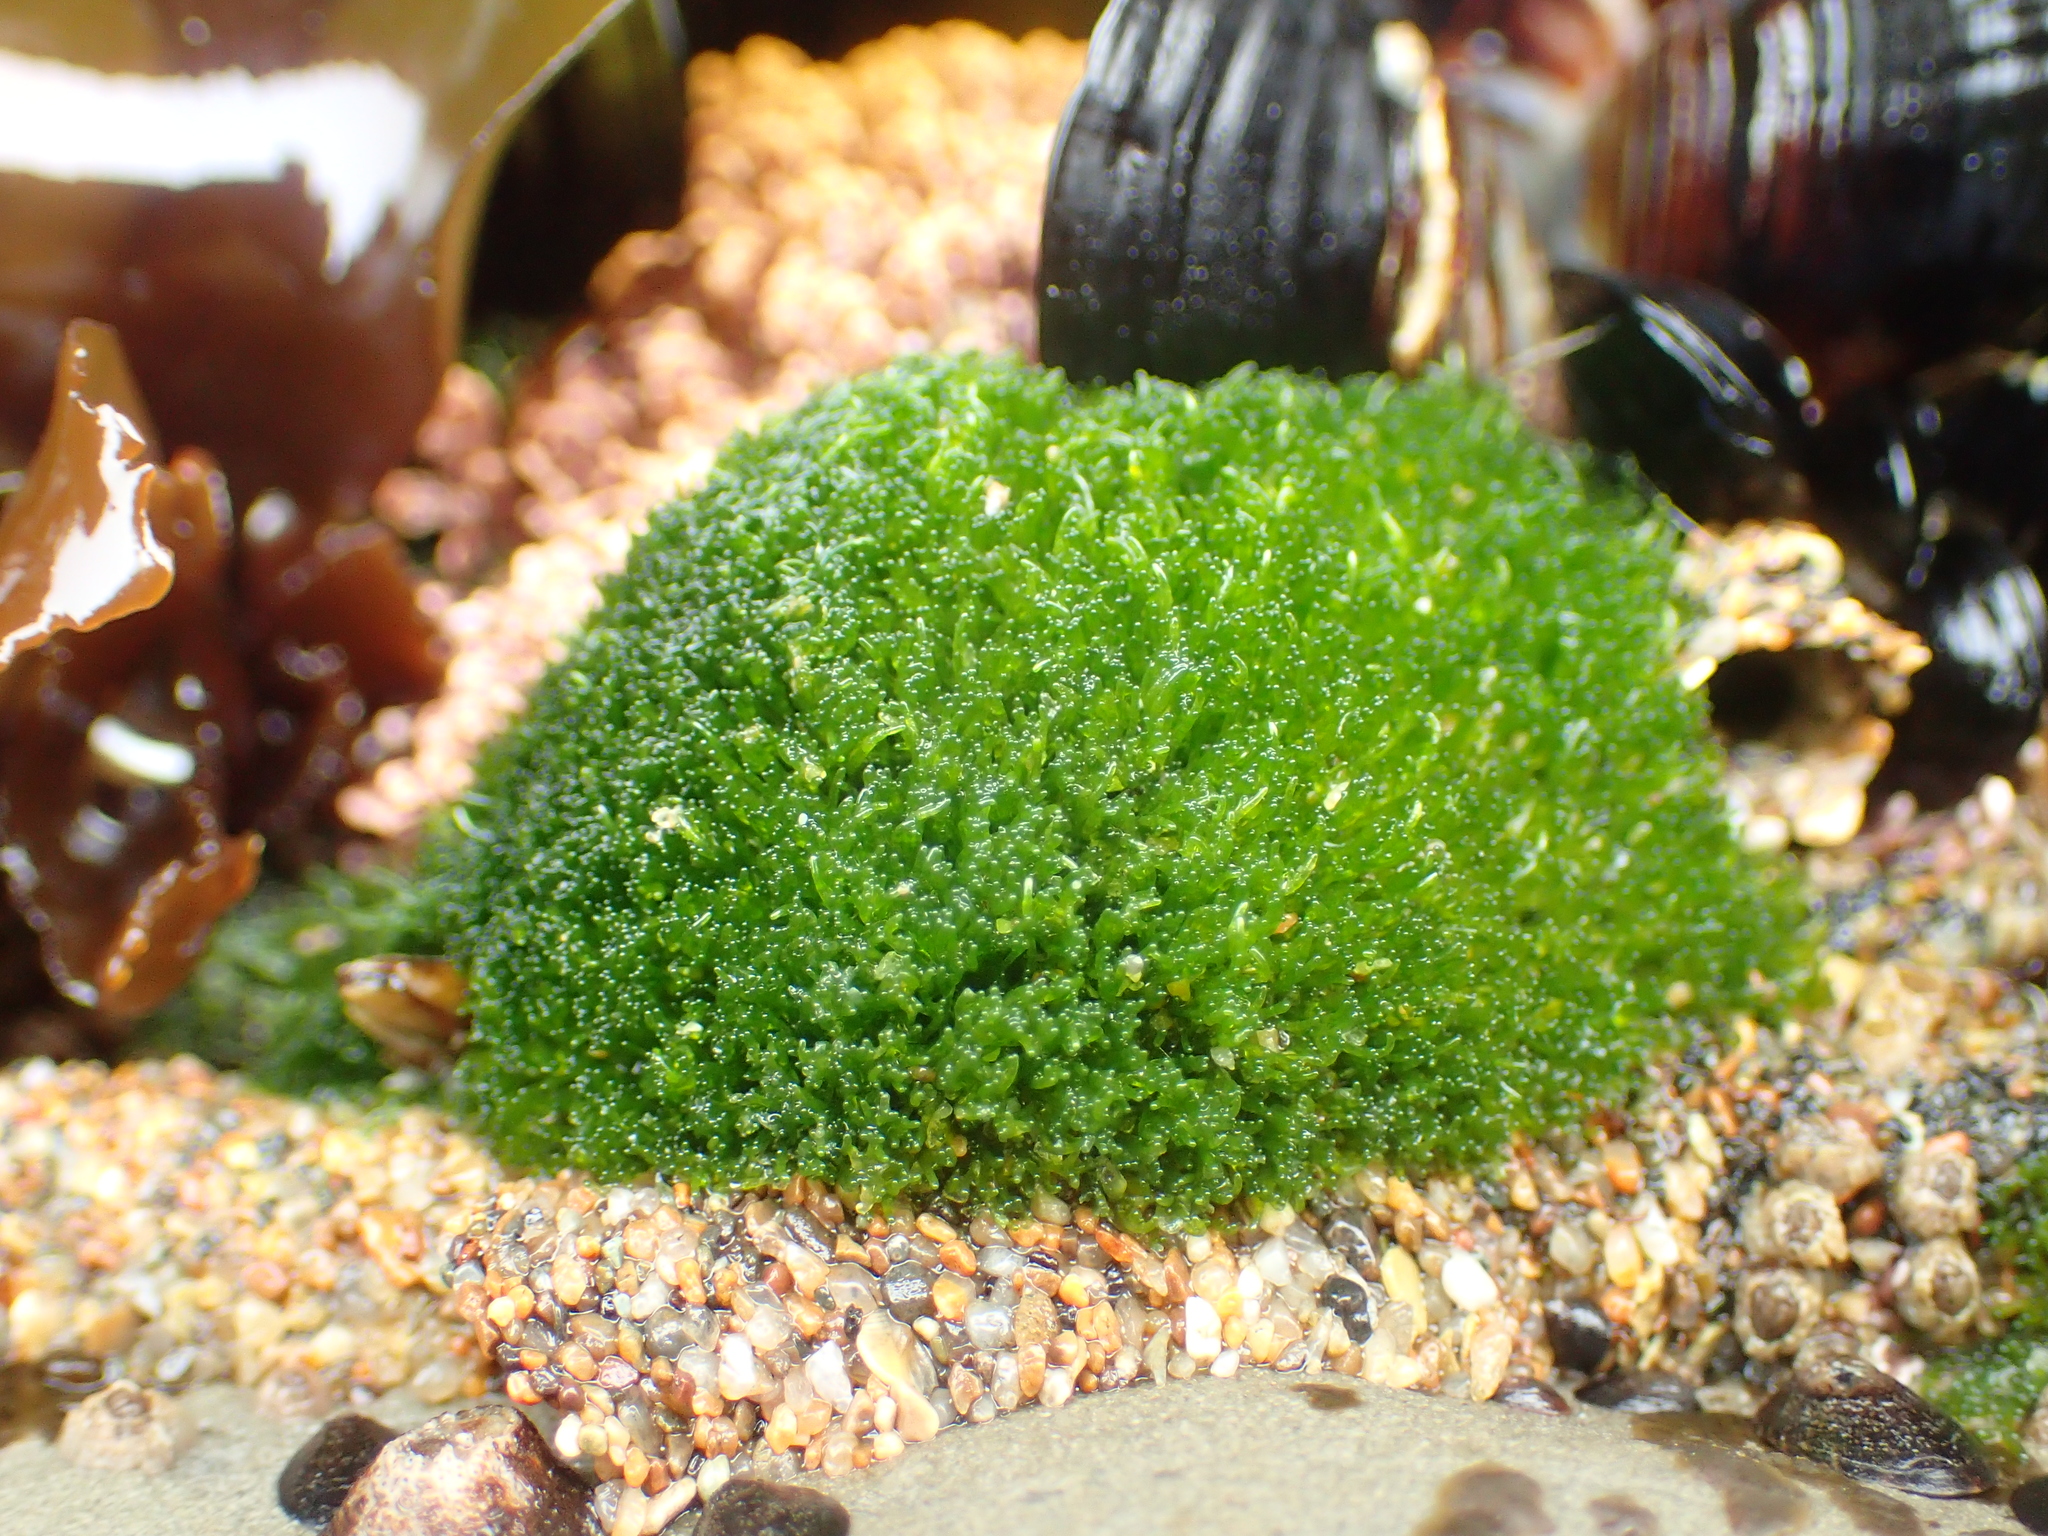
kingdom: Plantae
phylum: Chlorophyta
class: Ulvophyceae
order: Cladophorales
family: Cladophoraceae
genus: Cladophora
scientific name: Cladophora columbiana
